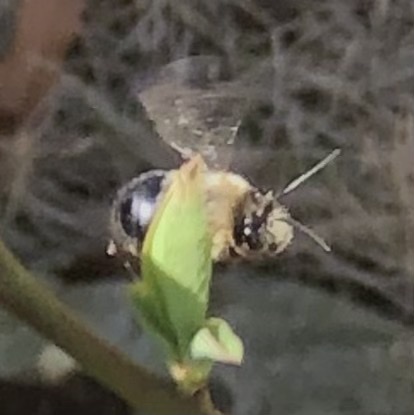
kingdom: Animalia
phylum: Arthropoda
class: Insecta
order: Hymenoptera
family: Apidae
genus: Habropoda
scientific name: Habropoda laboriosa
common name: Southeastern blueberry bee
